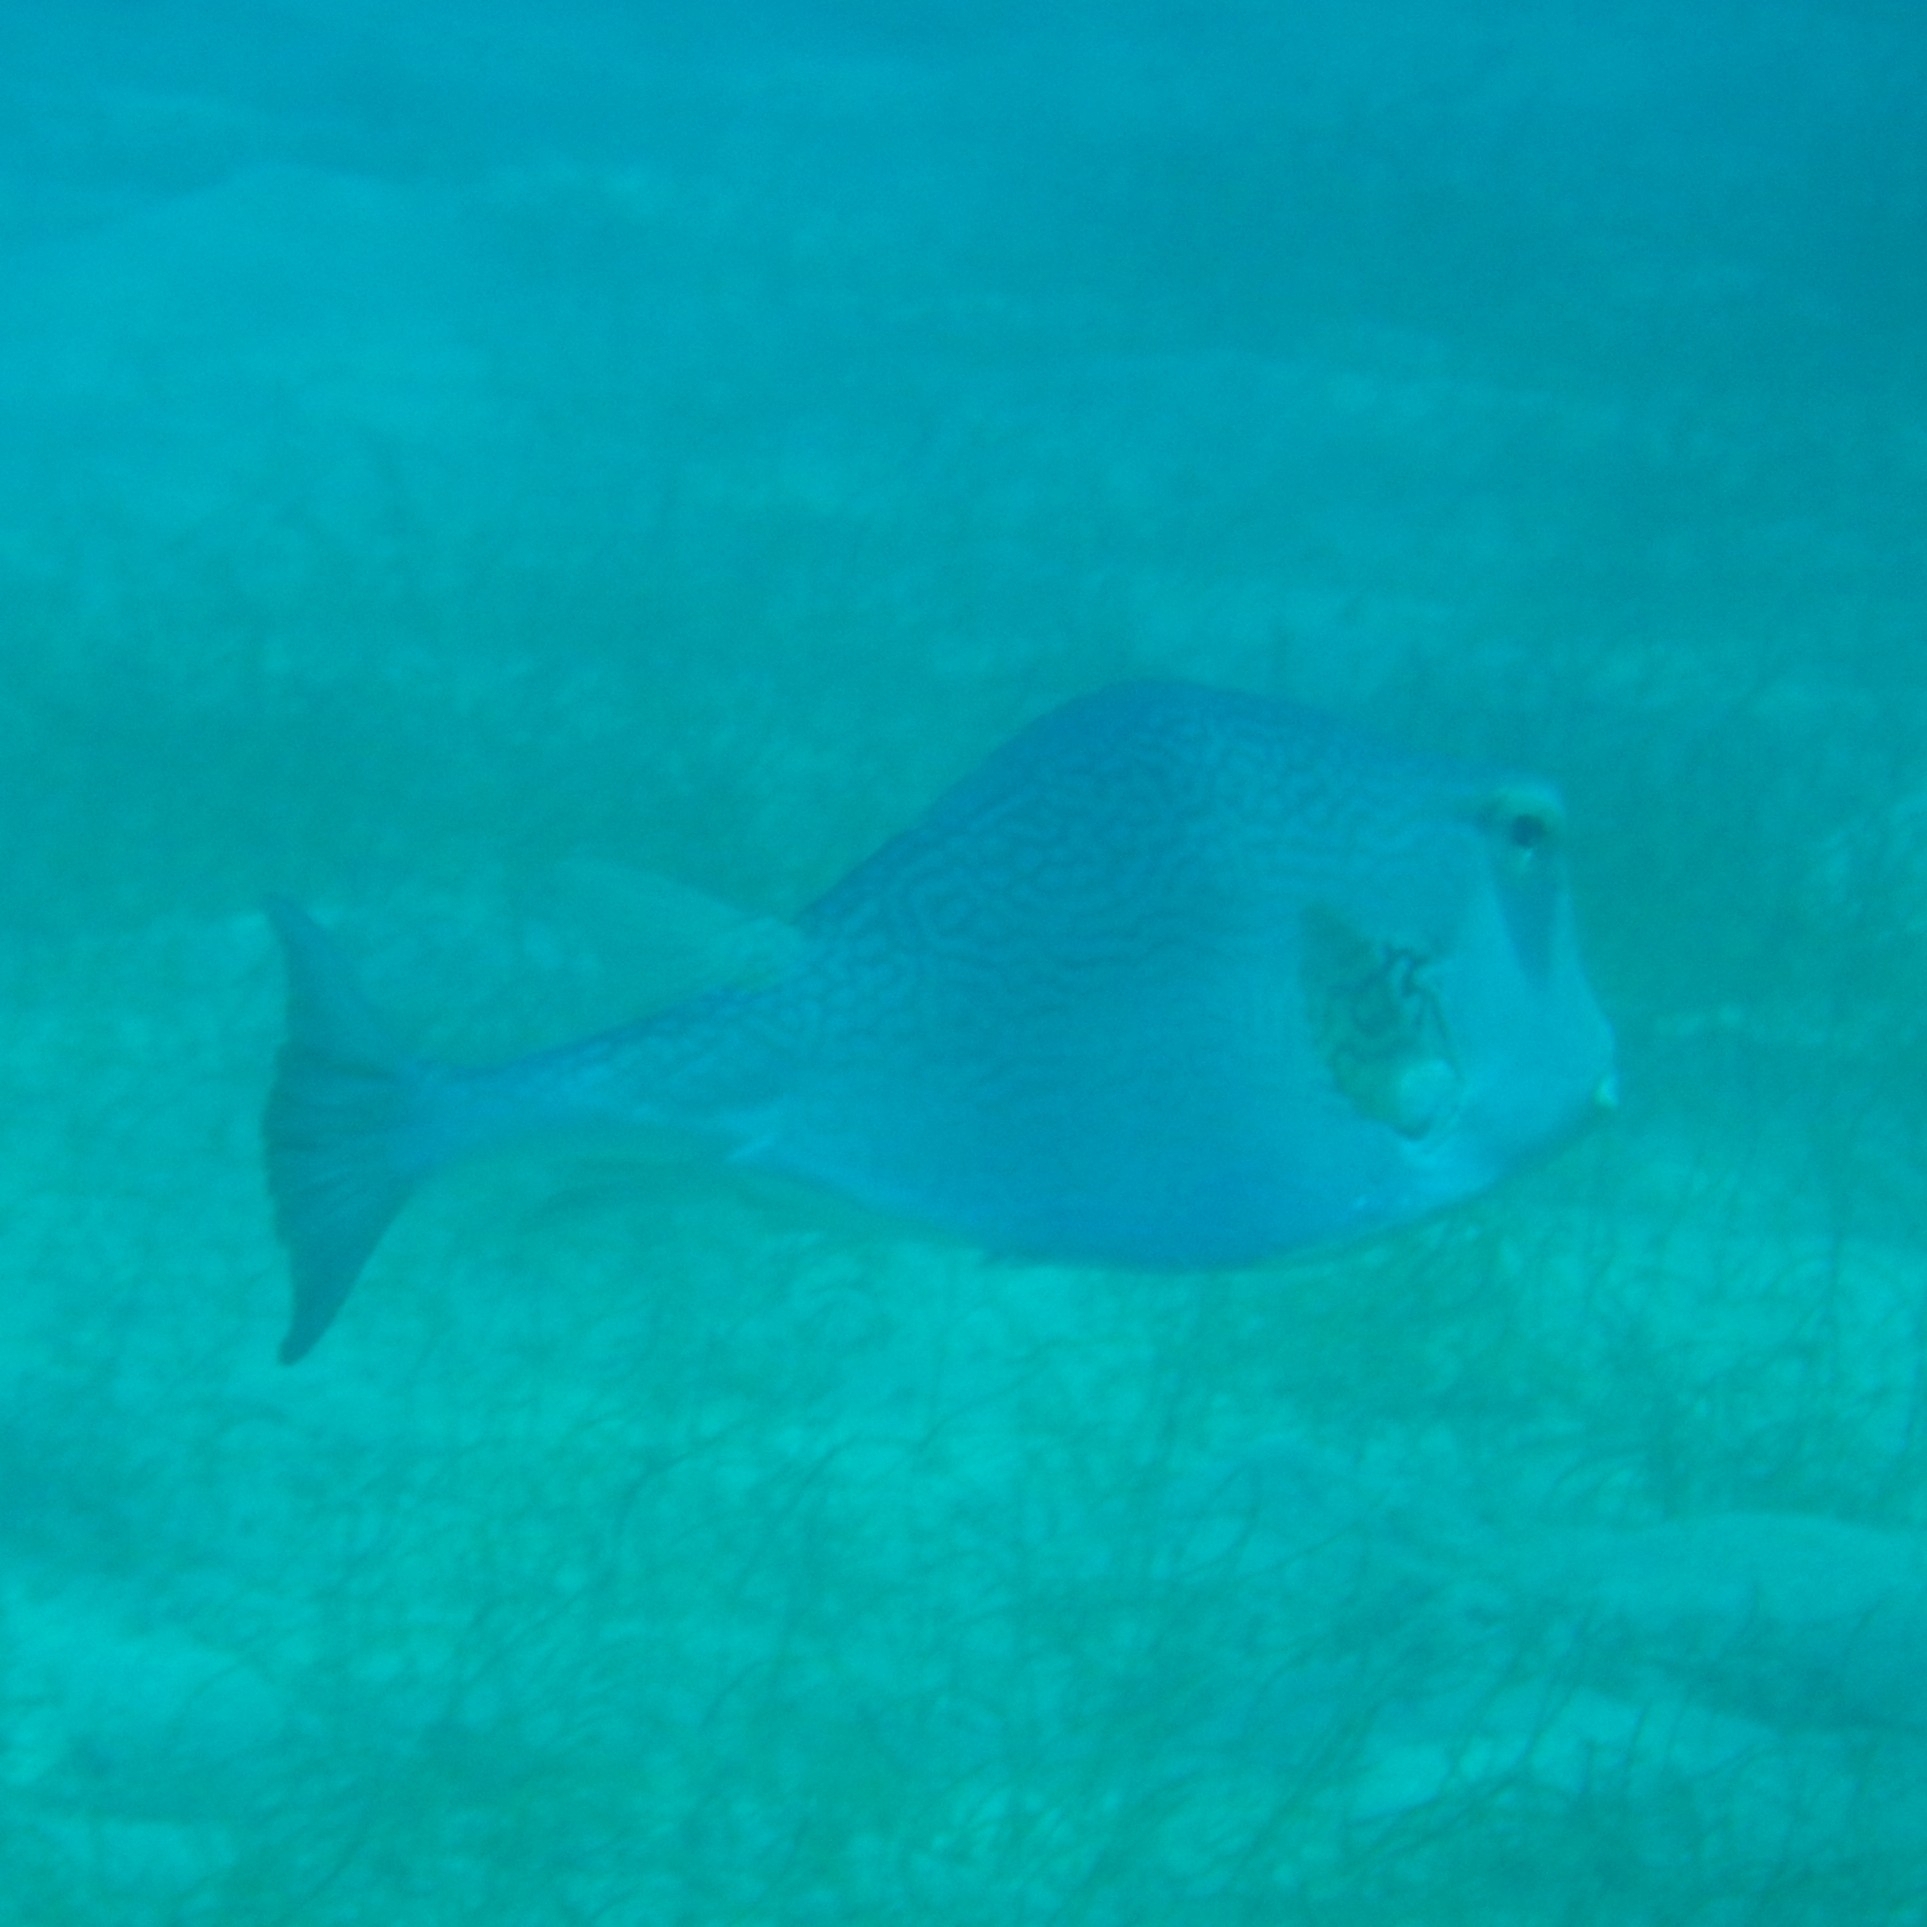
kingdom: Animalia
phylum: Chordata
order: Tetraodontiformes
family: Ostraciidae
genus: Lactophrys
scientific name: Lactophrys trigonus
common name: Buffalo trunkfish
